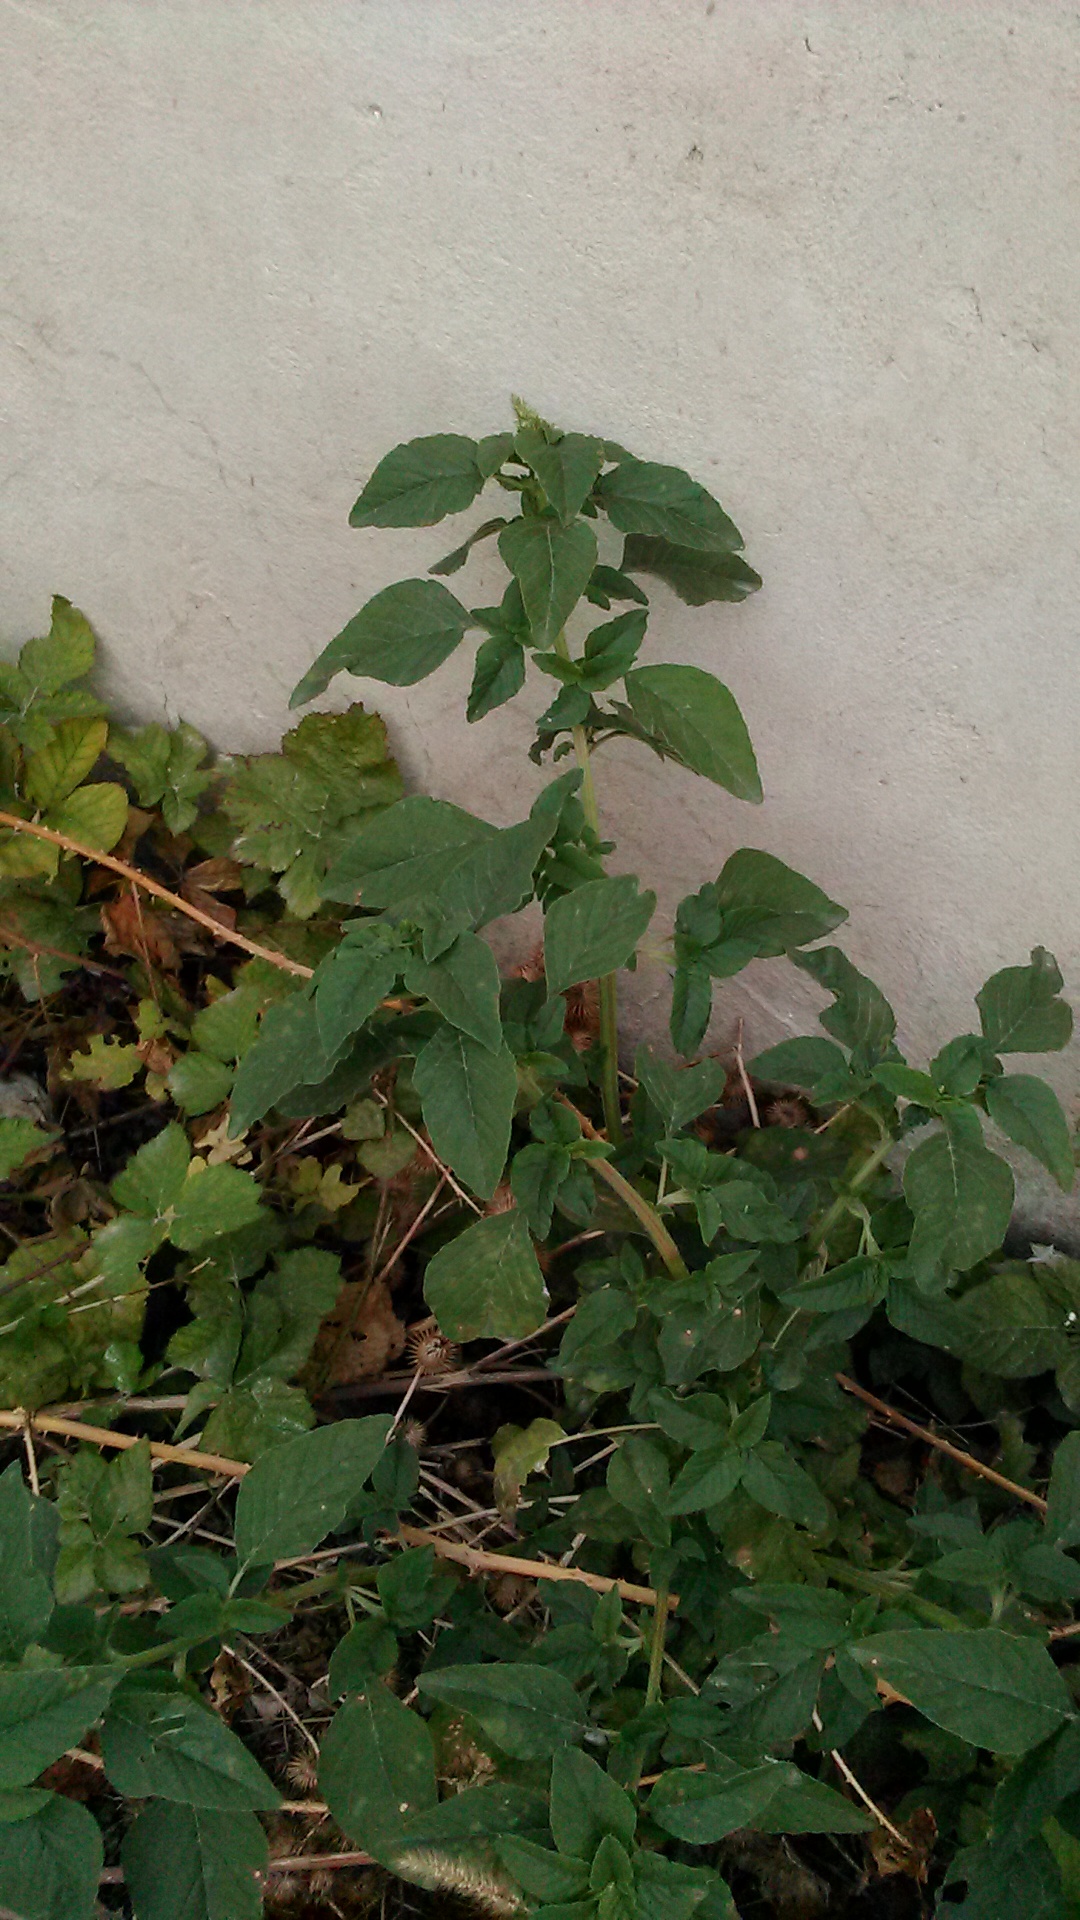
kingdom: Plantae
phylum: Tracheophyta
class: Magnoliopsida
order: Caryophyllales
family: Amaranthaceae
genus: Amaranthus
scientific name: Amaranthus retroflexus
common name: Redroot amaranth
